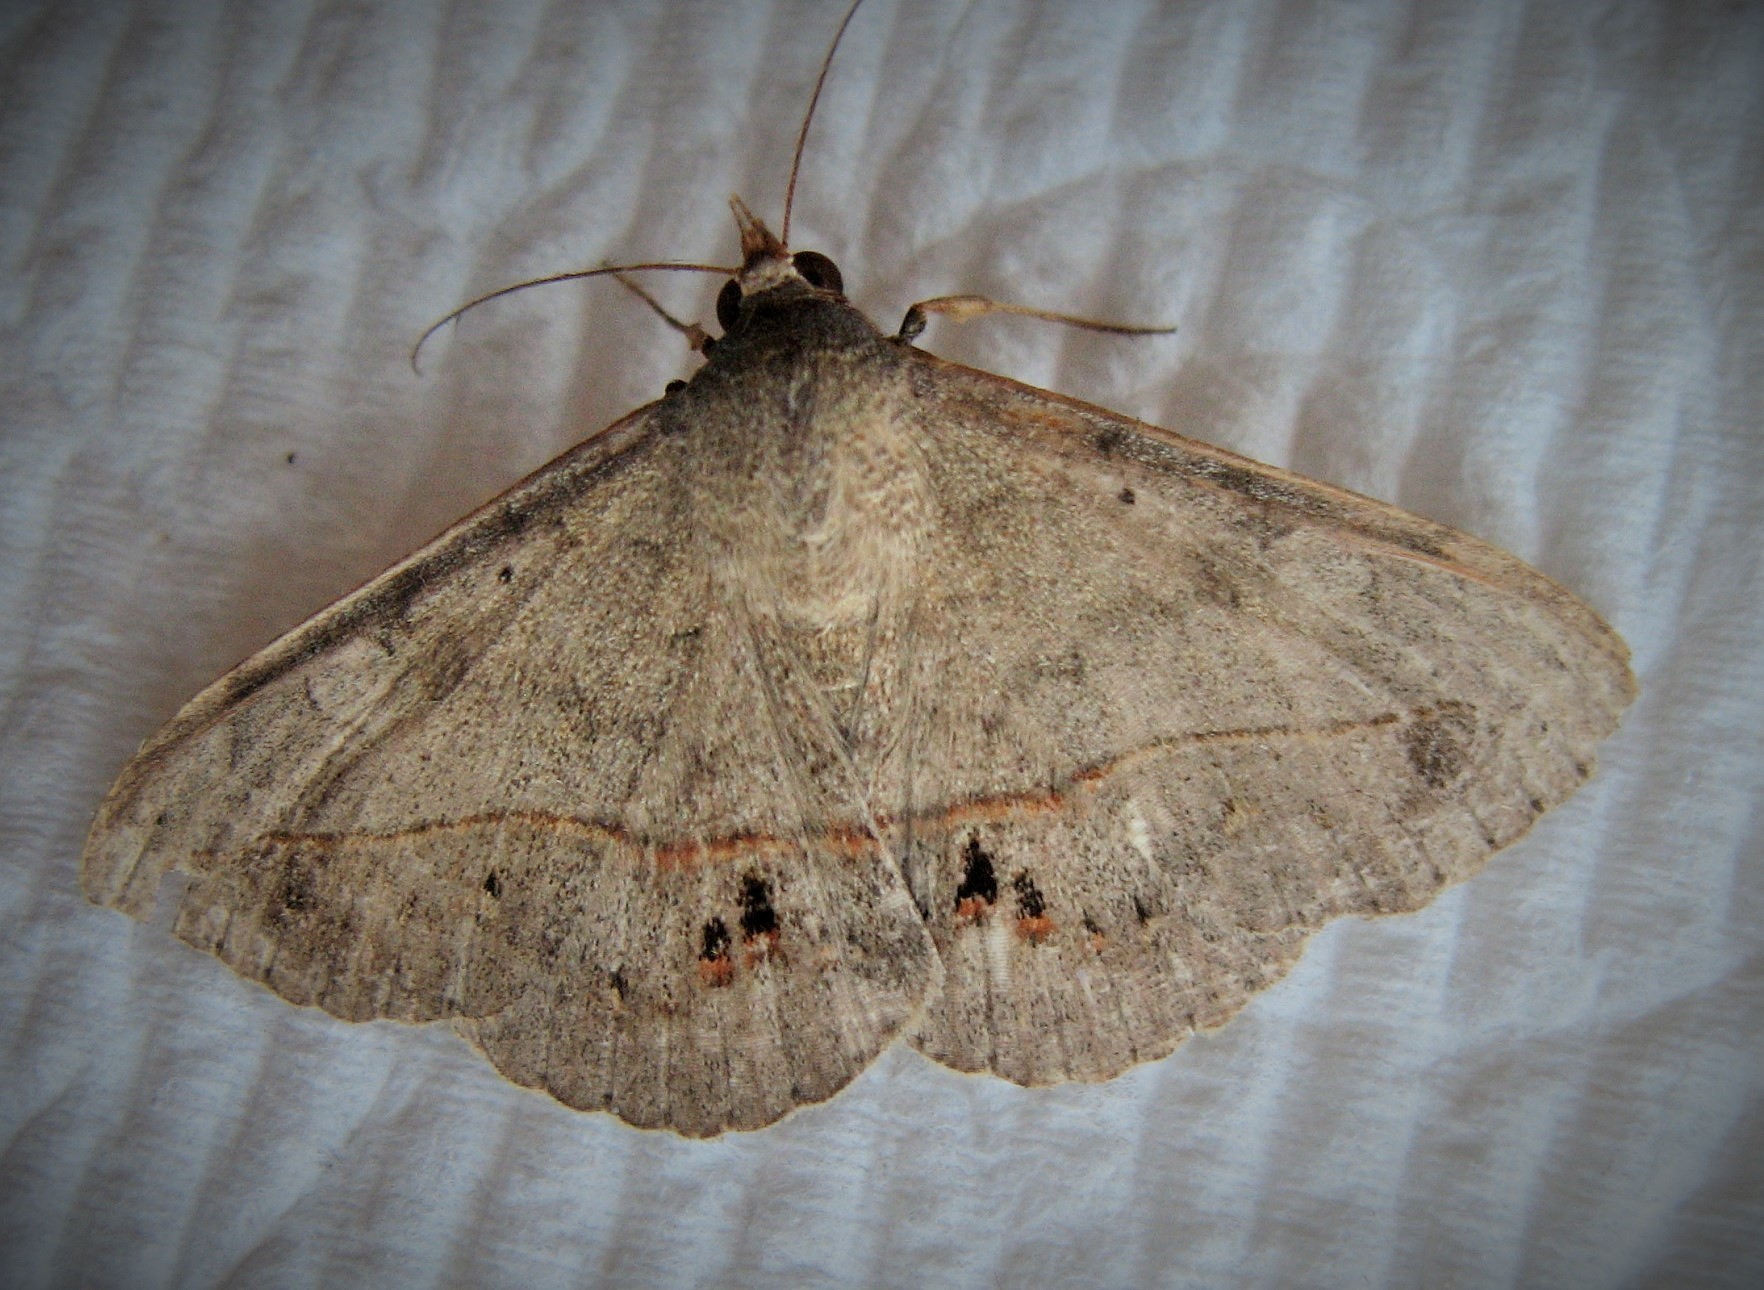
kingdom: Animalia
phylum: Arthropoda
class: Insecta
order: Lepidoptera
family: Erebidae
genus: Anticarsia
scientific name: Anticarsia gemmatalis
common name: Cutworm moth
